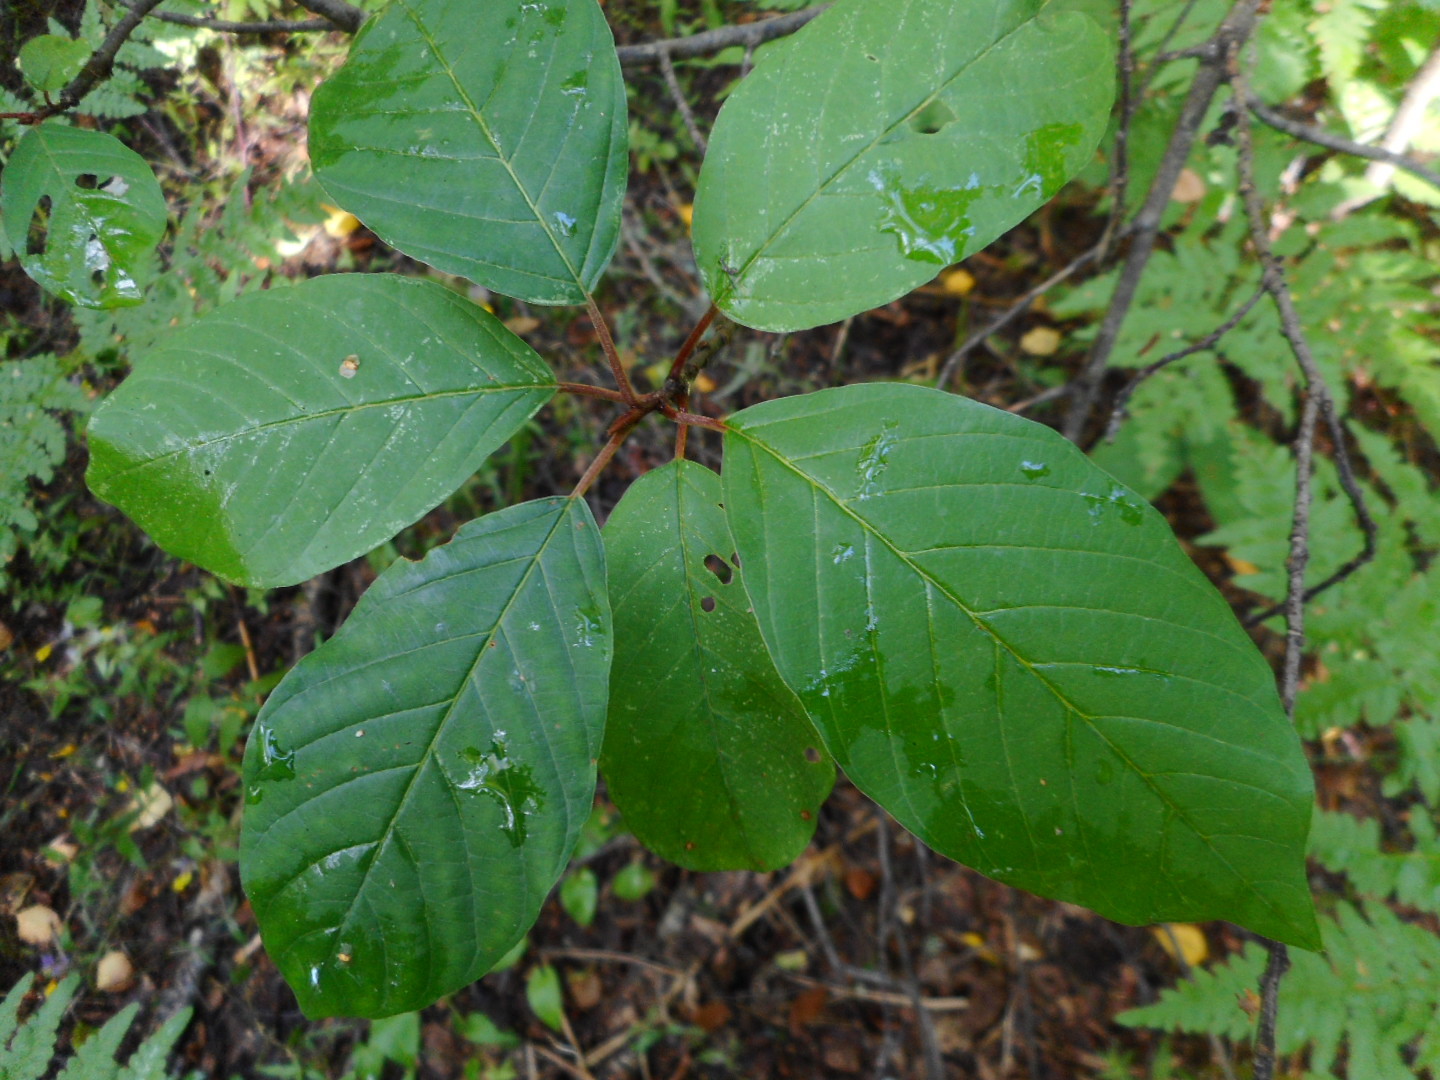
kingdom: Plantae
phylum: Tracheophyta
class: Magnoliopsida
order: Rosales
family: Rhamnaceae
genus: Frangula
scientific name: Frangula alnus
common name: Alder buckthorn
